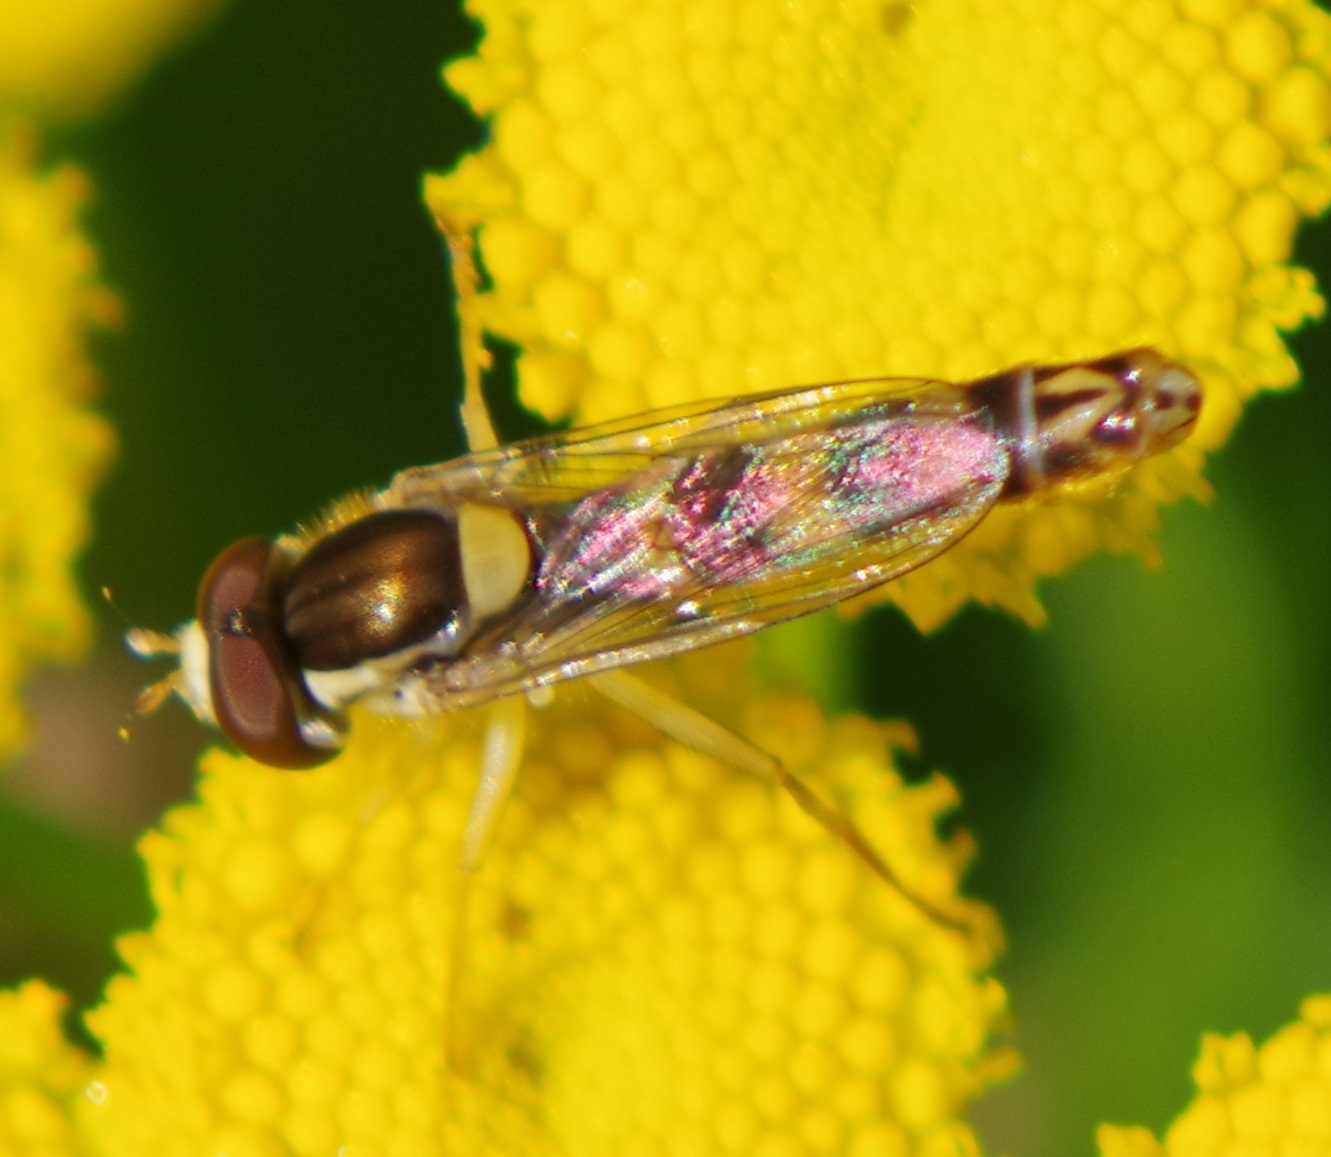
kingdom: Animalia
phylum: Arthropoda
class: Insecta
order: Diptera
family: Syrphidae
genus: Sphaerophoria
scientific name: Sphaerophoria scripta
